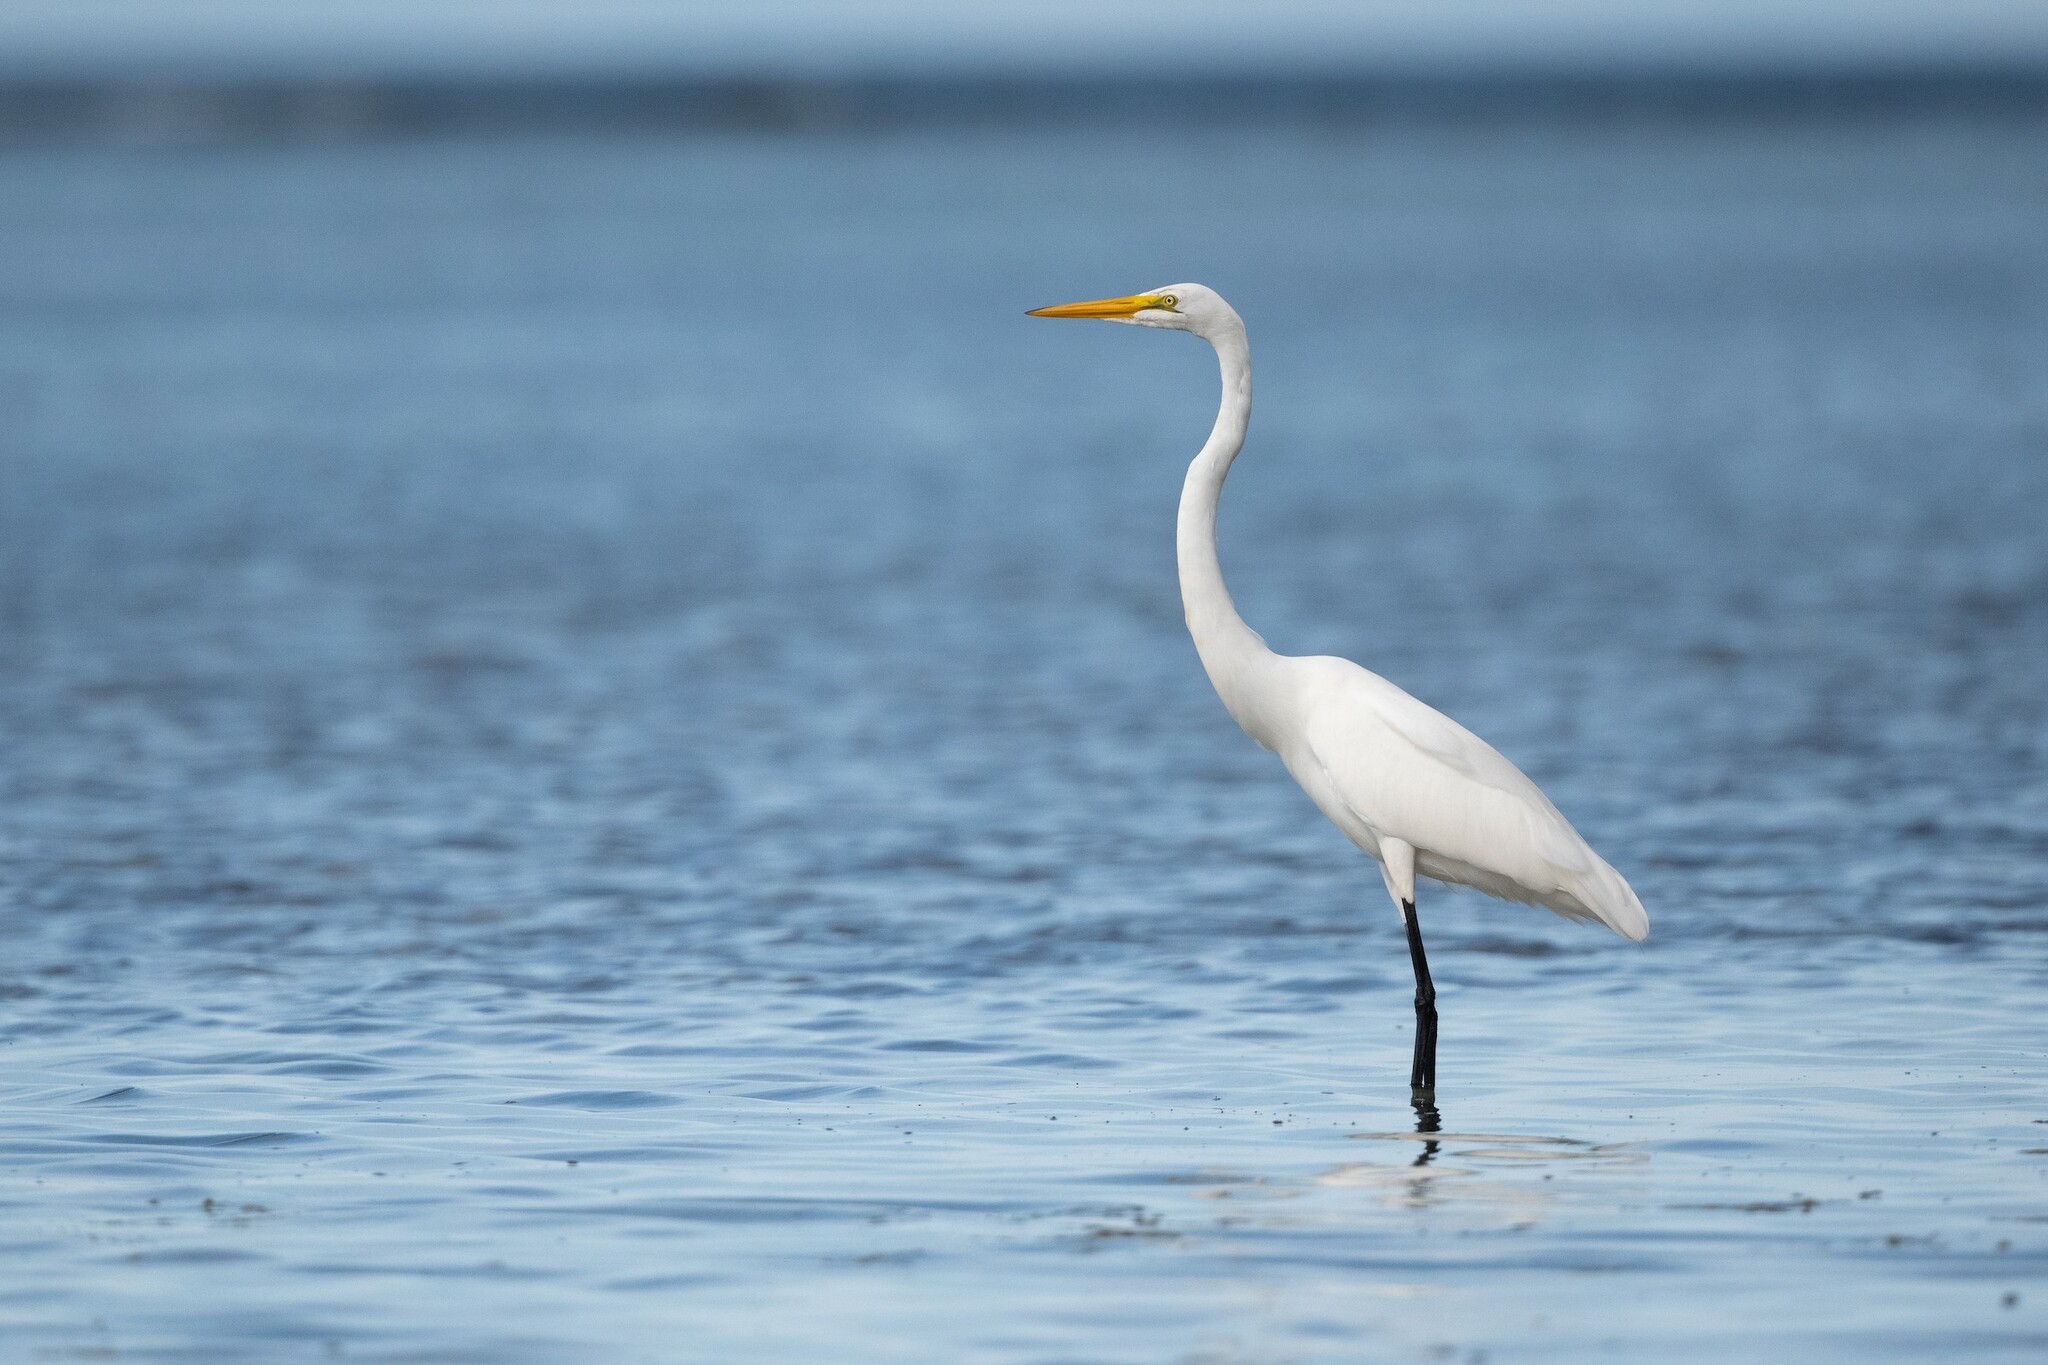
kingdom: Animalia
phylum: Chordata
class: Aves
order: Pelecaniformes
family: Ardeidae
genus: Ardea
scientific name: Ardea alba
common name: Great egret
